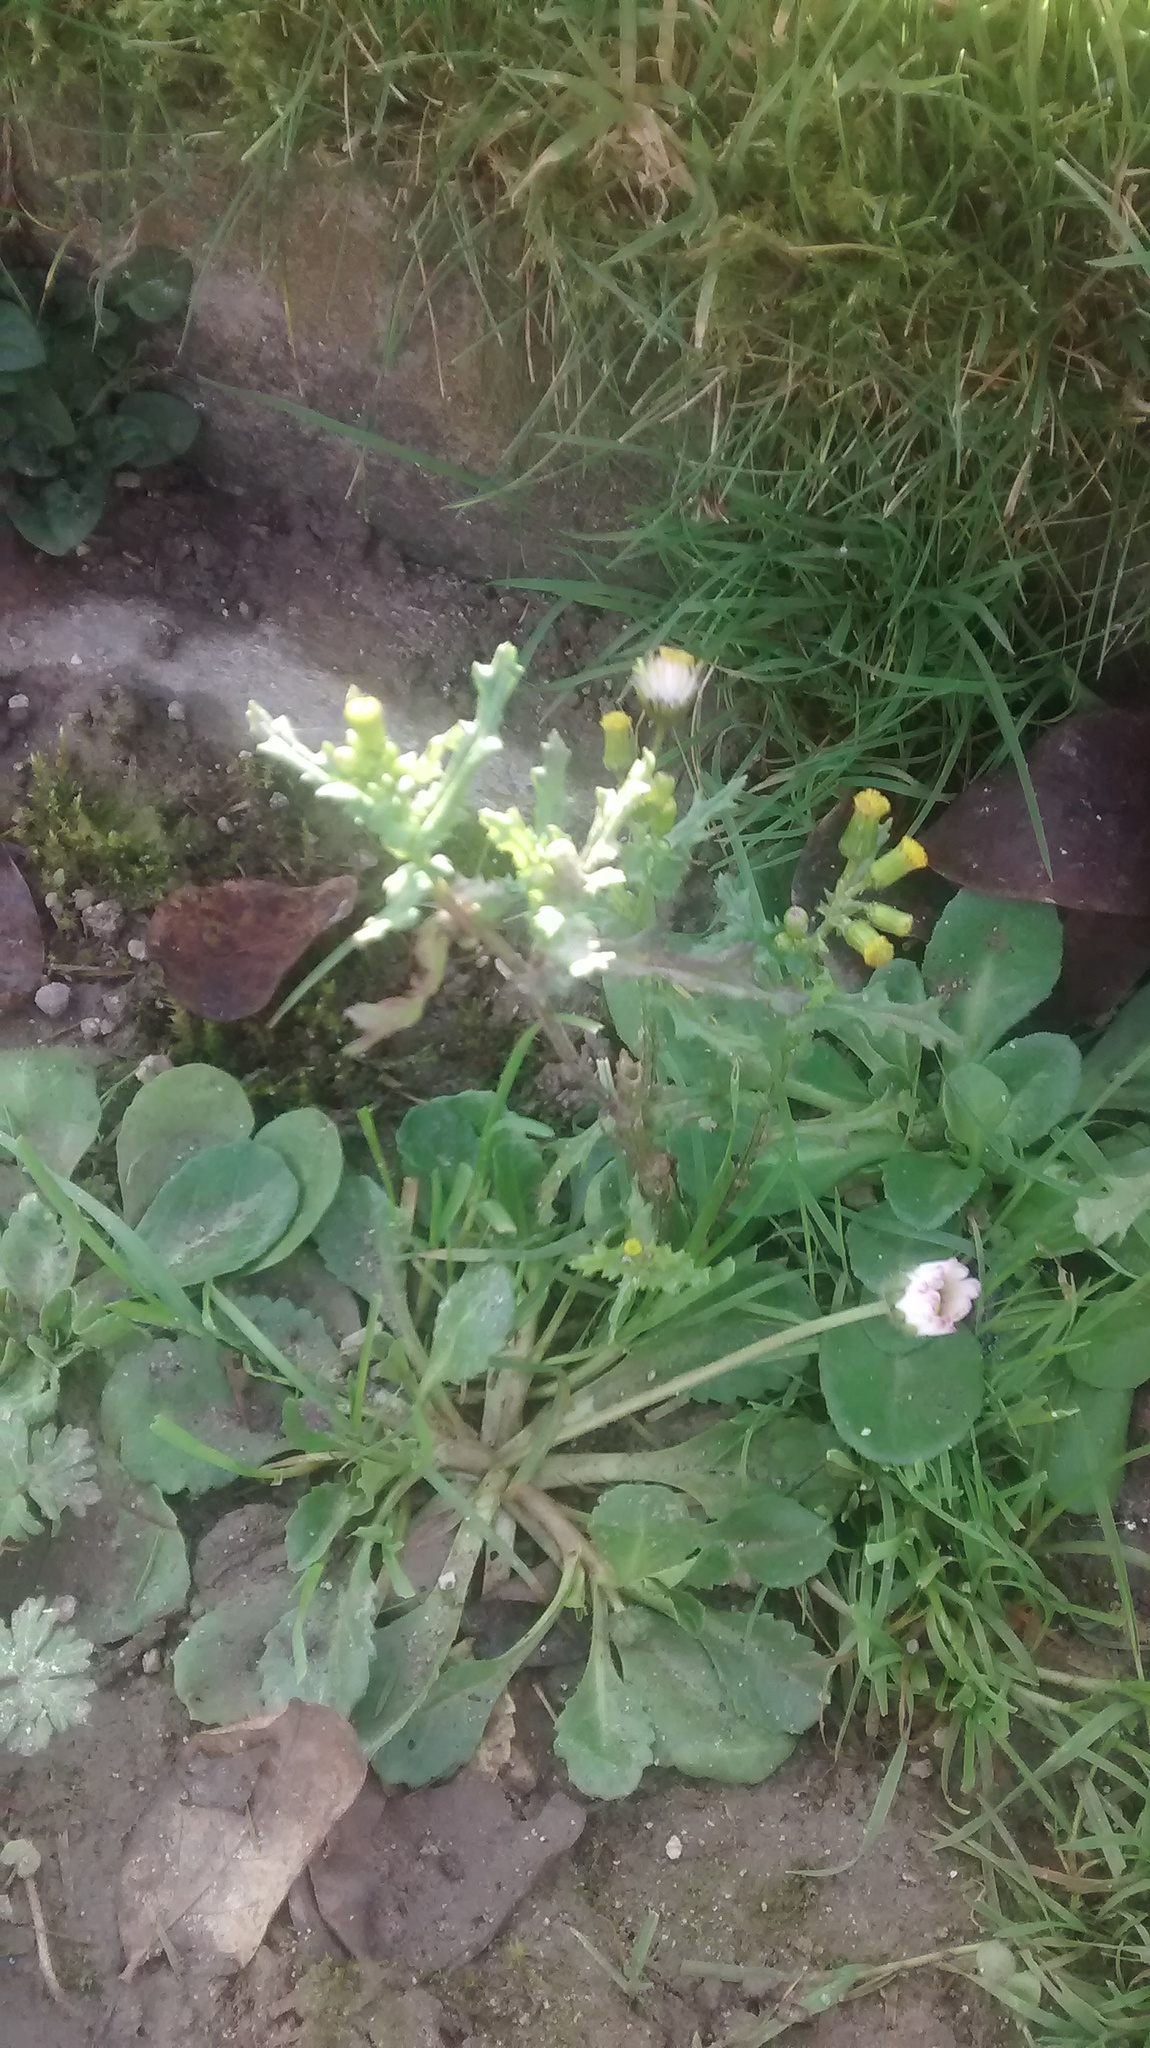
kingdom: Plantae
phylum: Tracheophyta
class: Magnoliopsida
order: Asterales
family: Asteraceae
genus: Senecio
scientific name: Senecio vulgaris
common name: Old-man-in-the-spring
